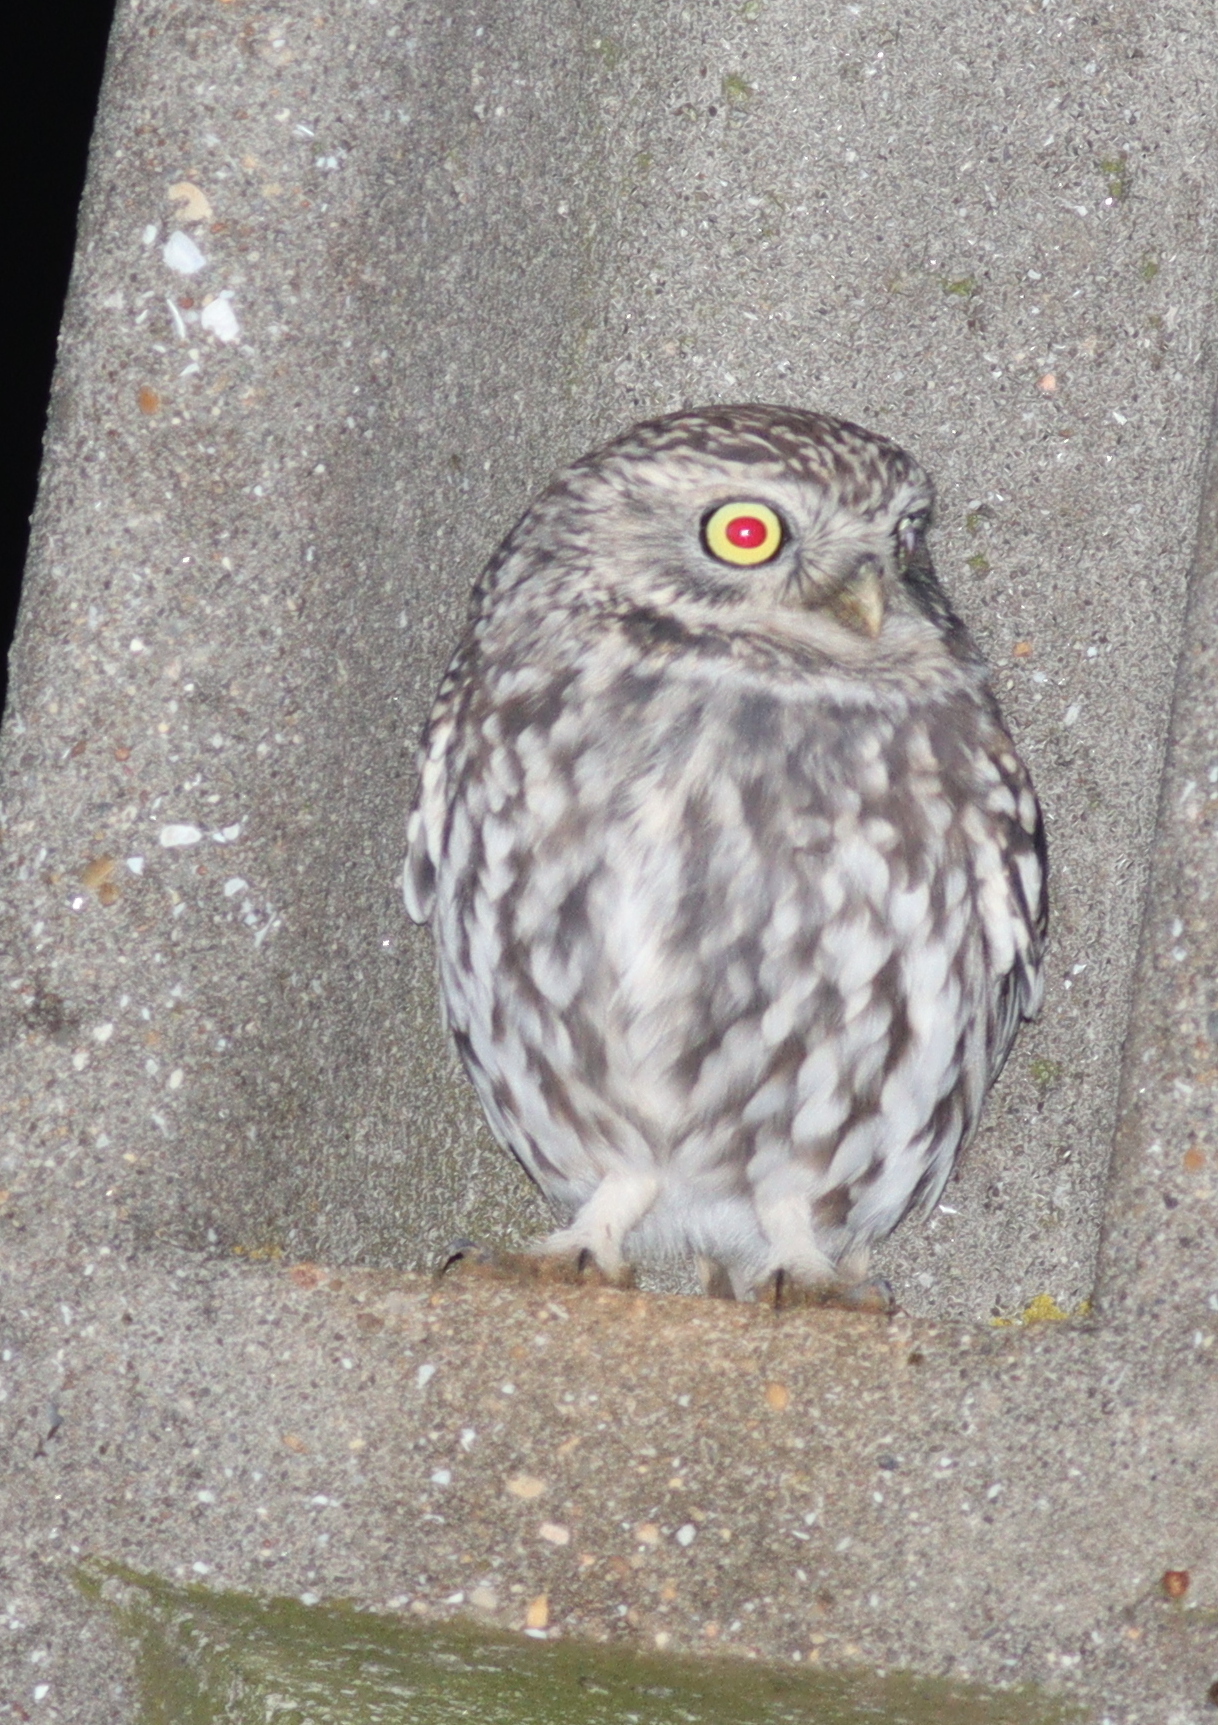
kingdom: Animalia
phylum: Chordata
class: Aves
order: Strigiformes
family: Strigidae
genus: Athene
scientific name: Athene noctua
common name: Little owl
